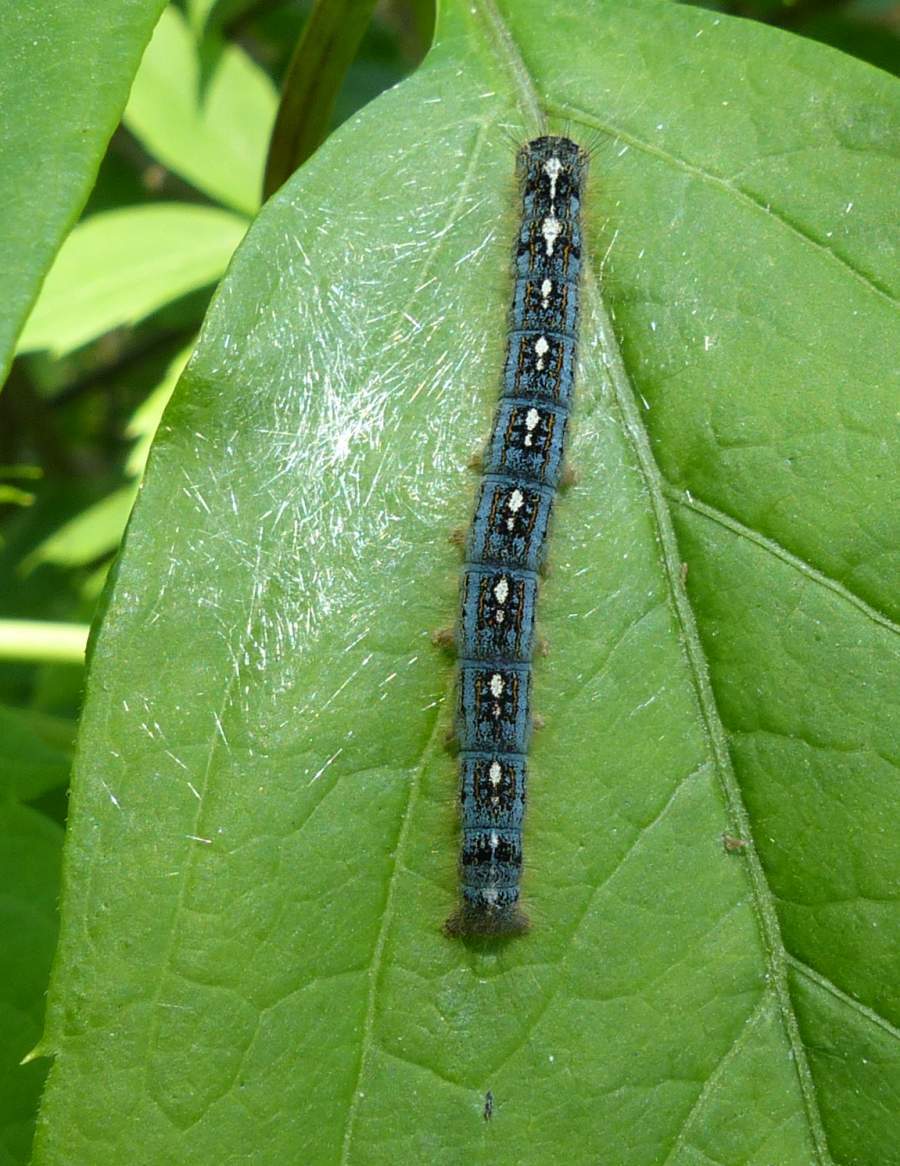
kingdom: Animalia
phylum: Arthropoda
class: Insecta
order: Lepidoptera
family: Lasiocampidae
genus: Malacosoma
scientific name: Malacosoma disstria
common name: Forest tent caterpillar
